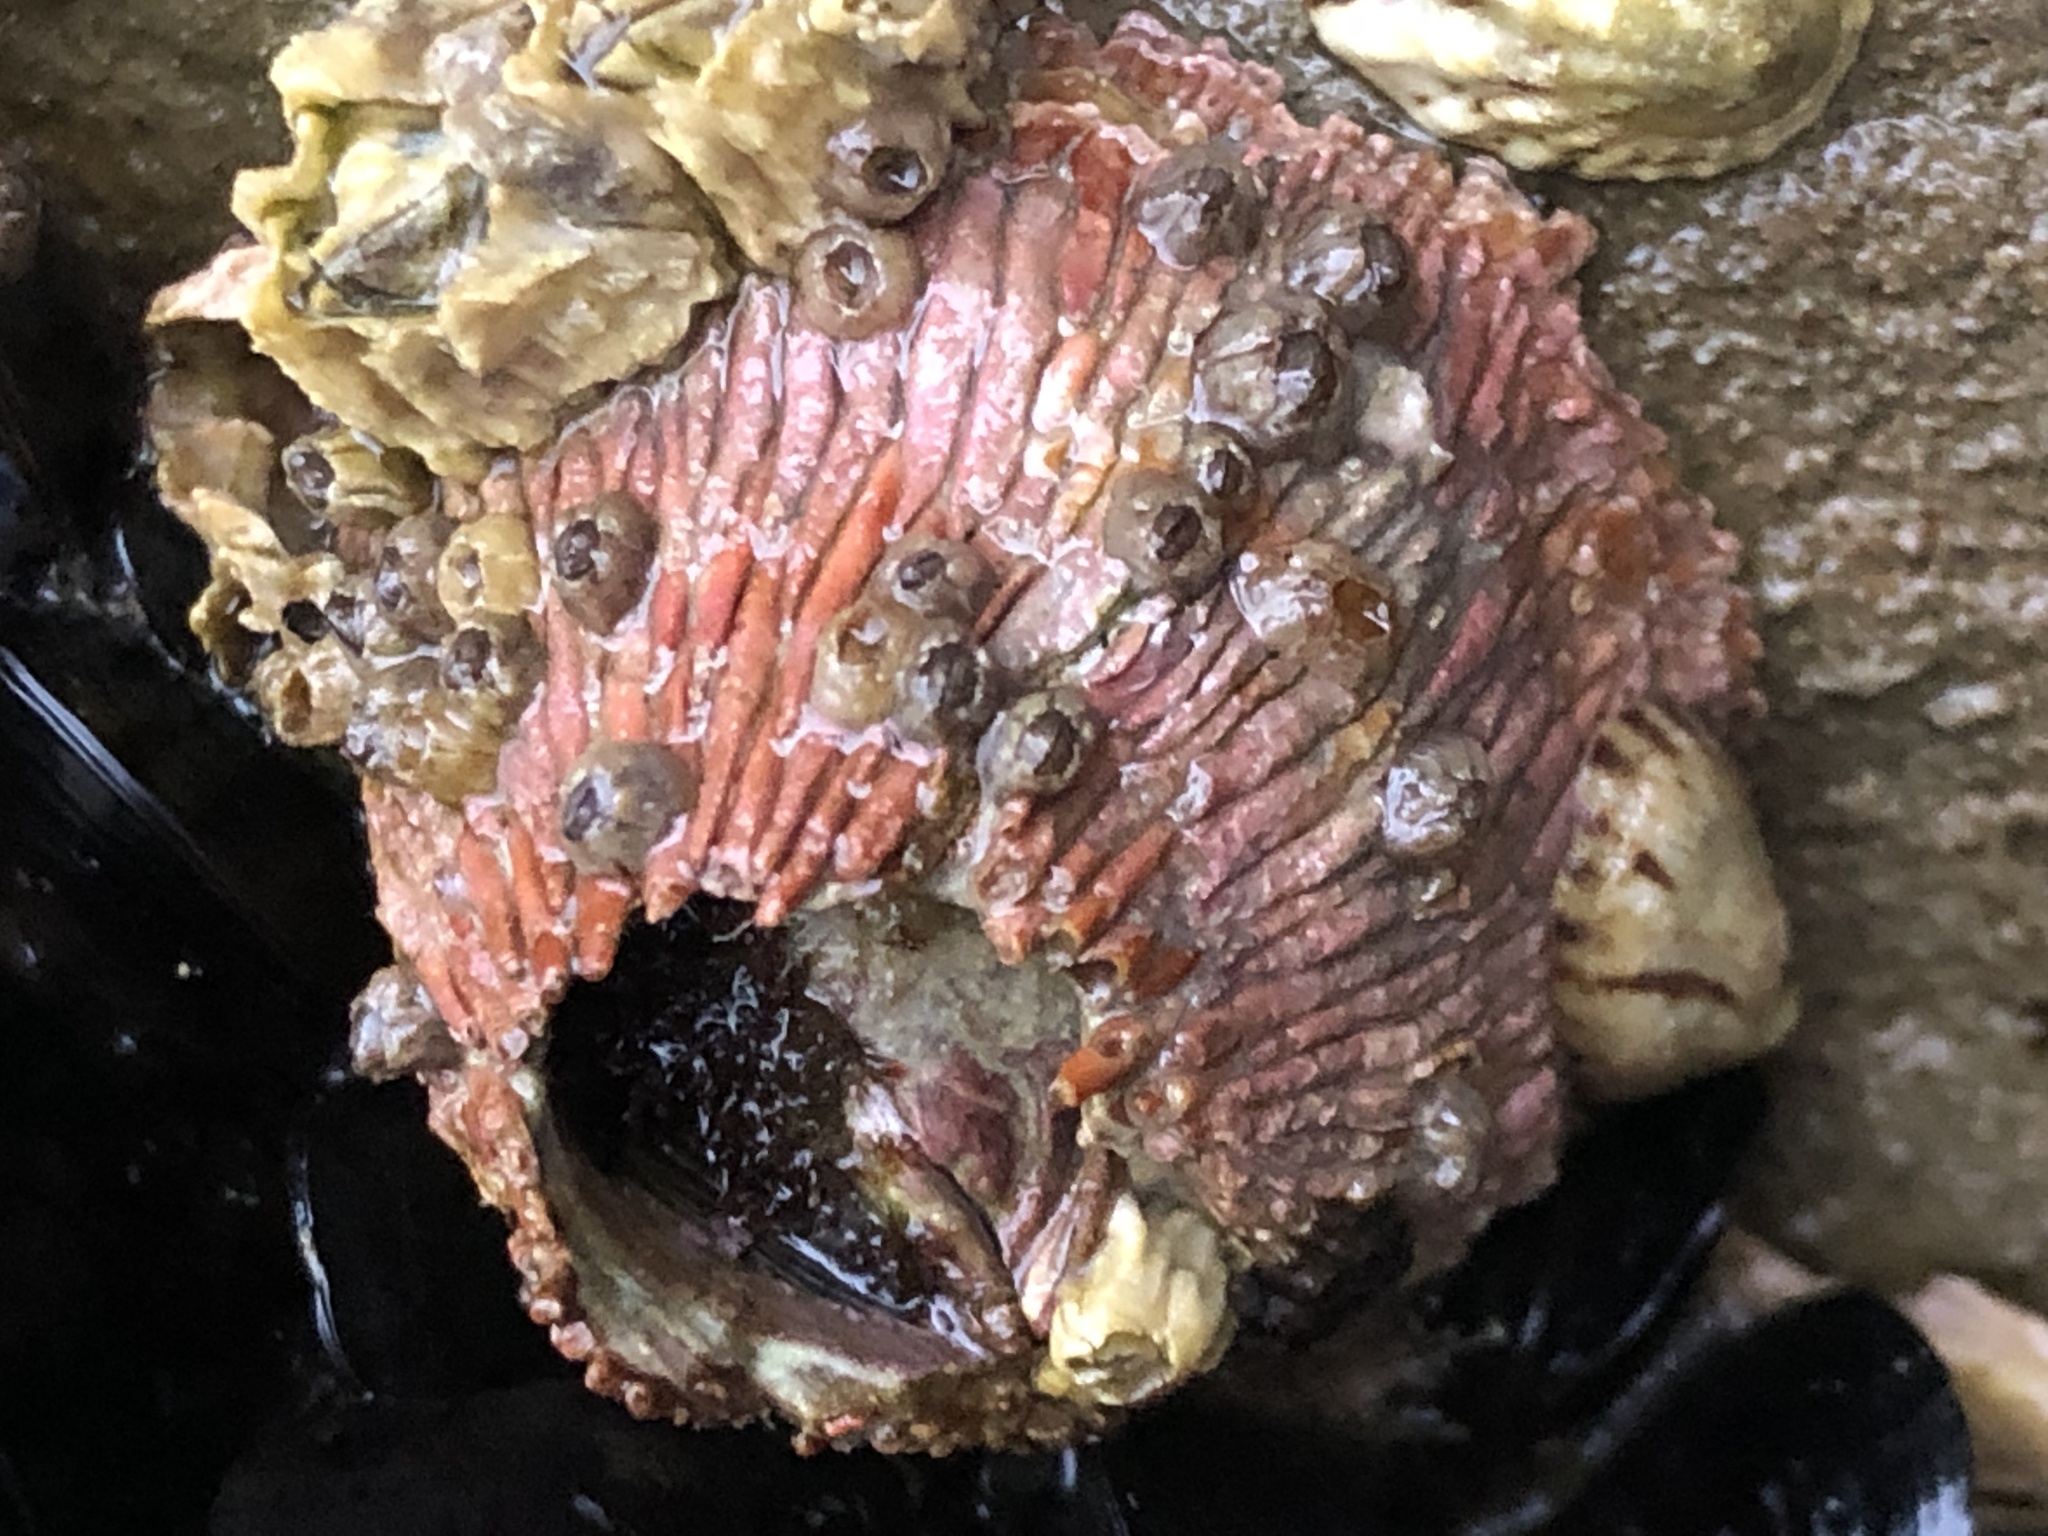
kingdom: Animalia
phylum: Arthropoda
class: Maxillopoda
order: Sessilia
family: Tetraclitidae
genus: Tetraclita
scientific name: Tetraclita rubescens
